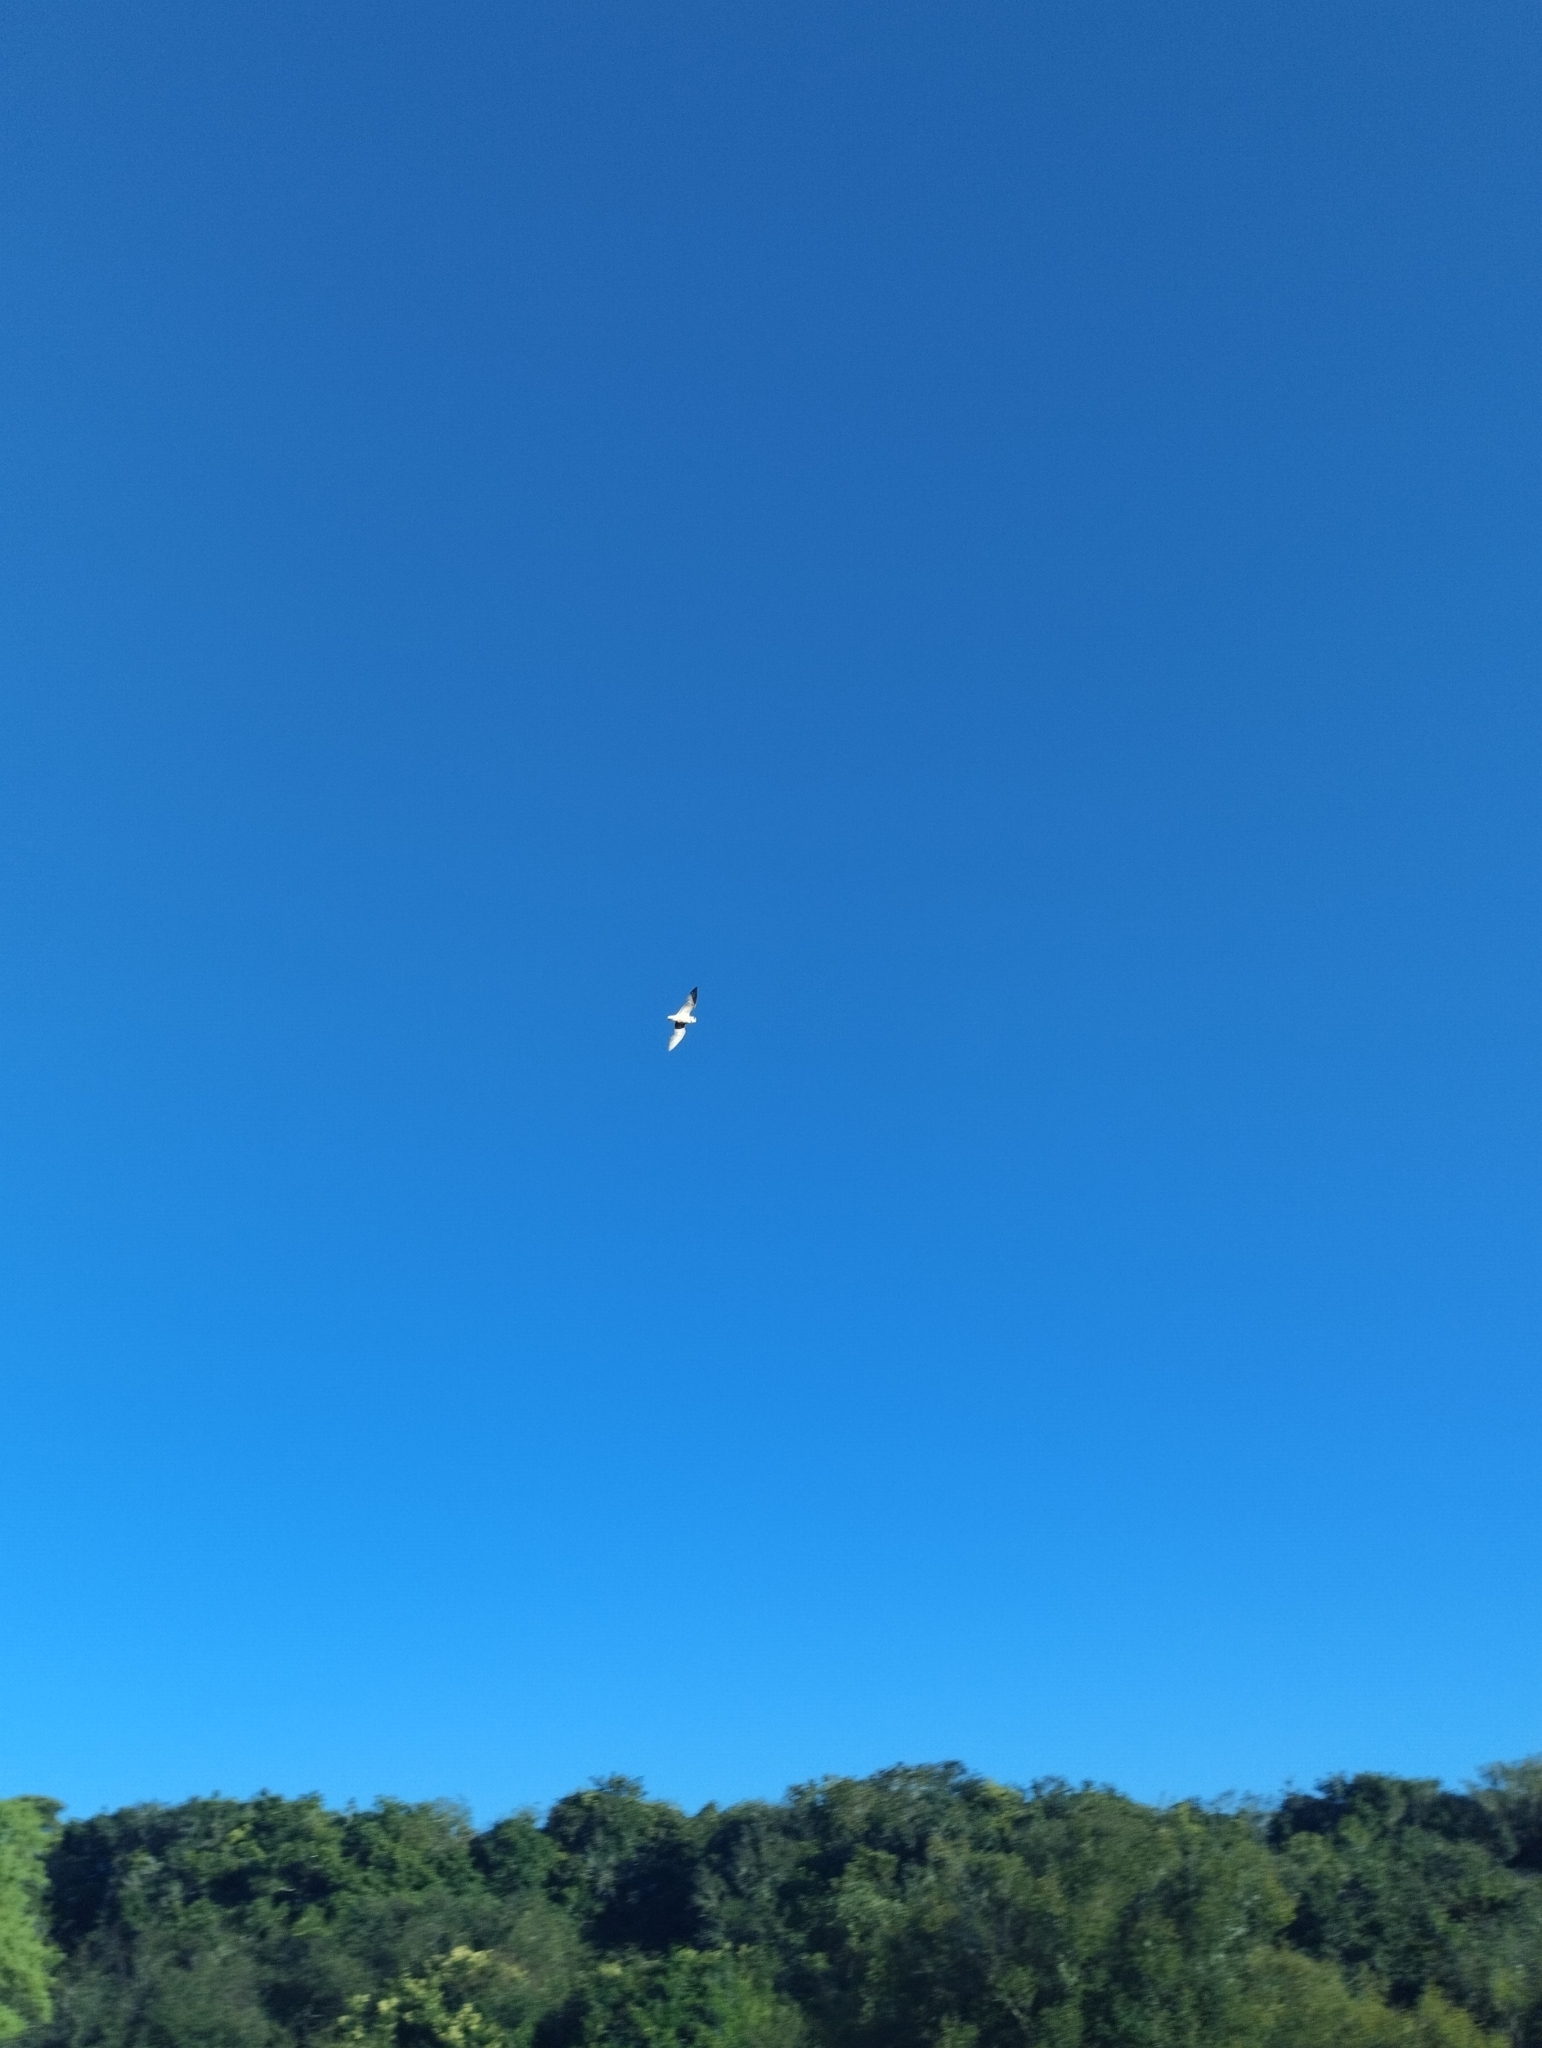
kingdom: Animalia
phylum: Chordata
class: Aves
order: Charadriiformes
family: Charadriidae
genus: Anarhynchus
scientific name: Anarhynchus
